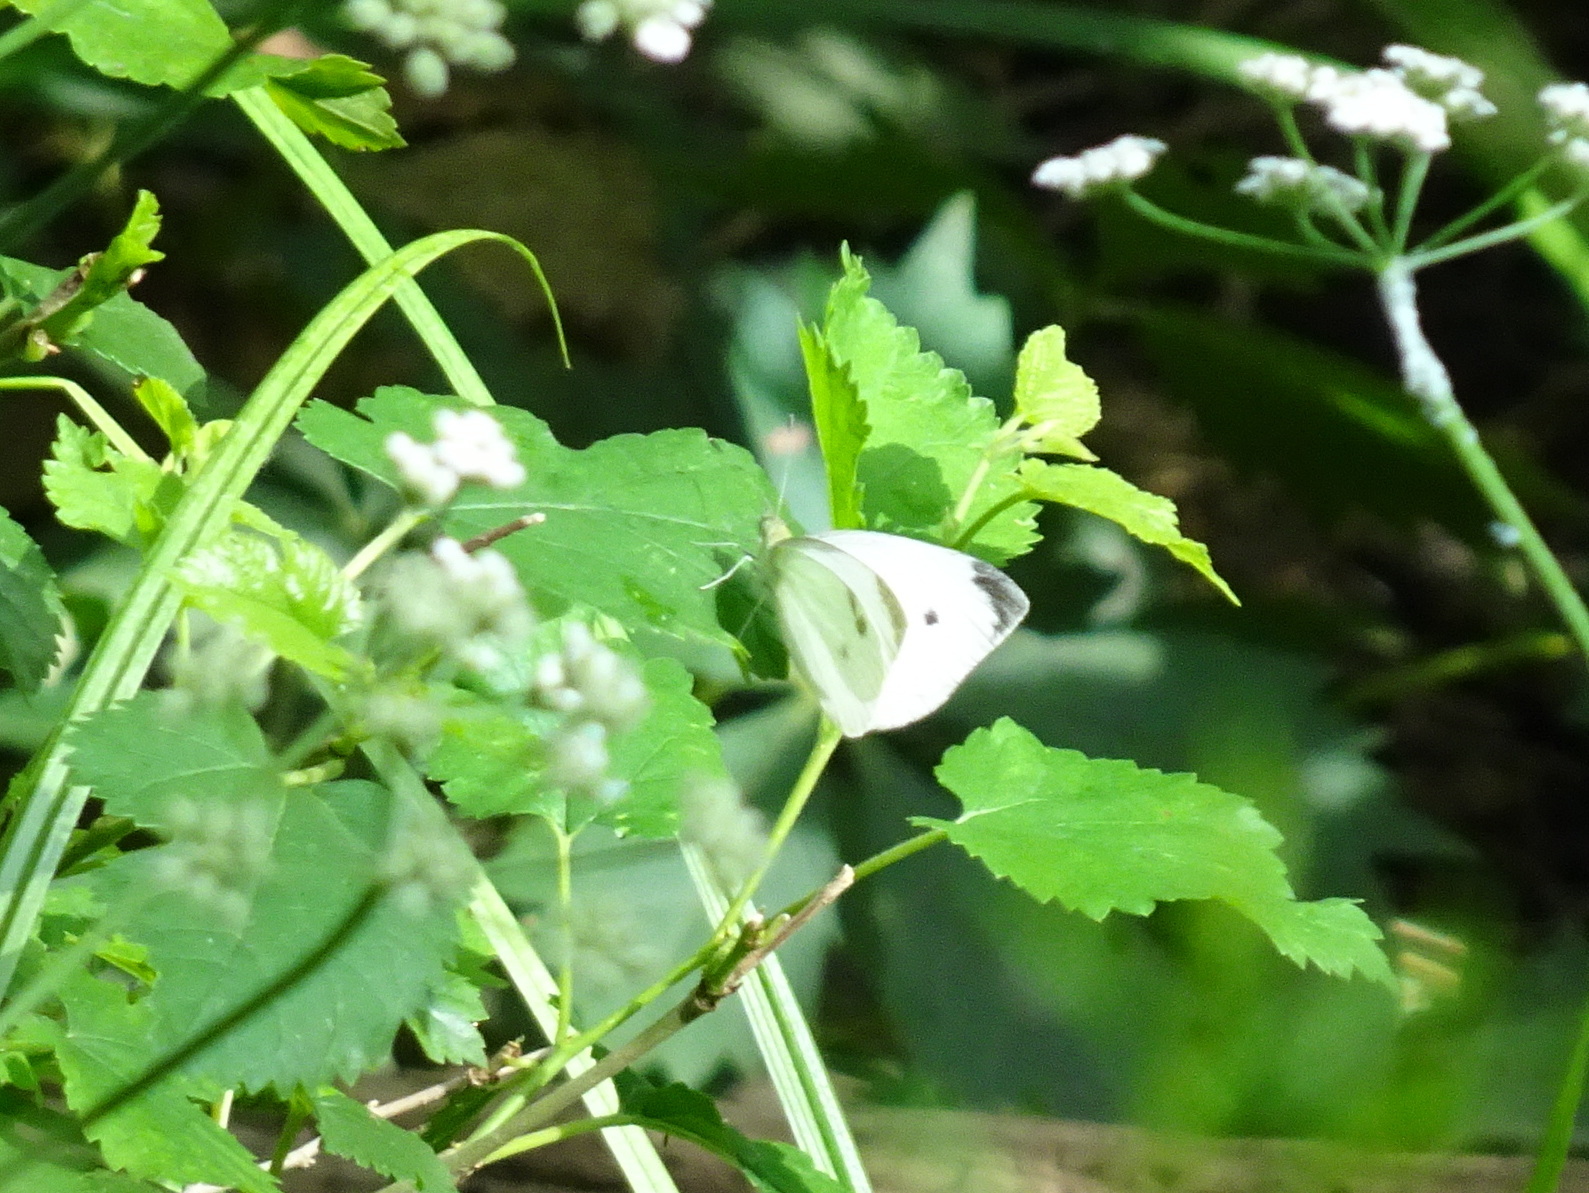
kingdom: Animalia
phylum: Arthropoda
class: Insecta
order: Lepidoptera
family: Pieridae
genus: Pieris
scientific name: Pieris rapae
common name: Small white
